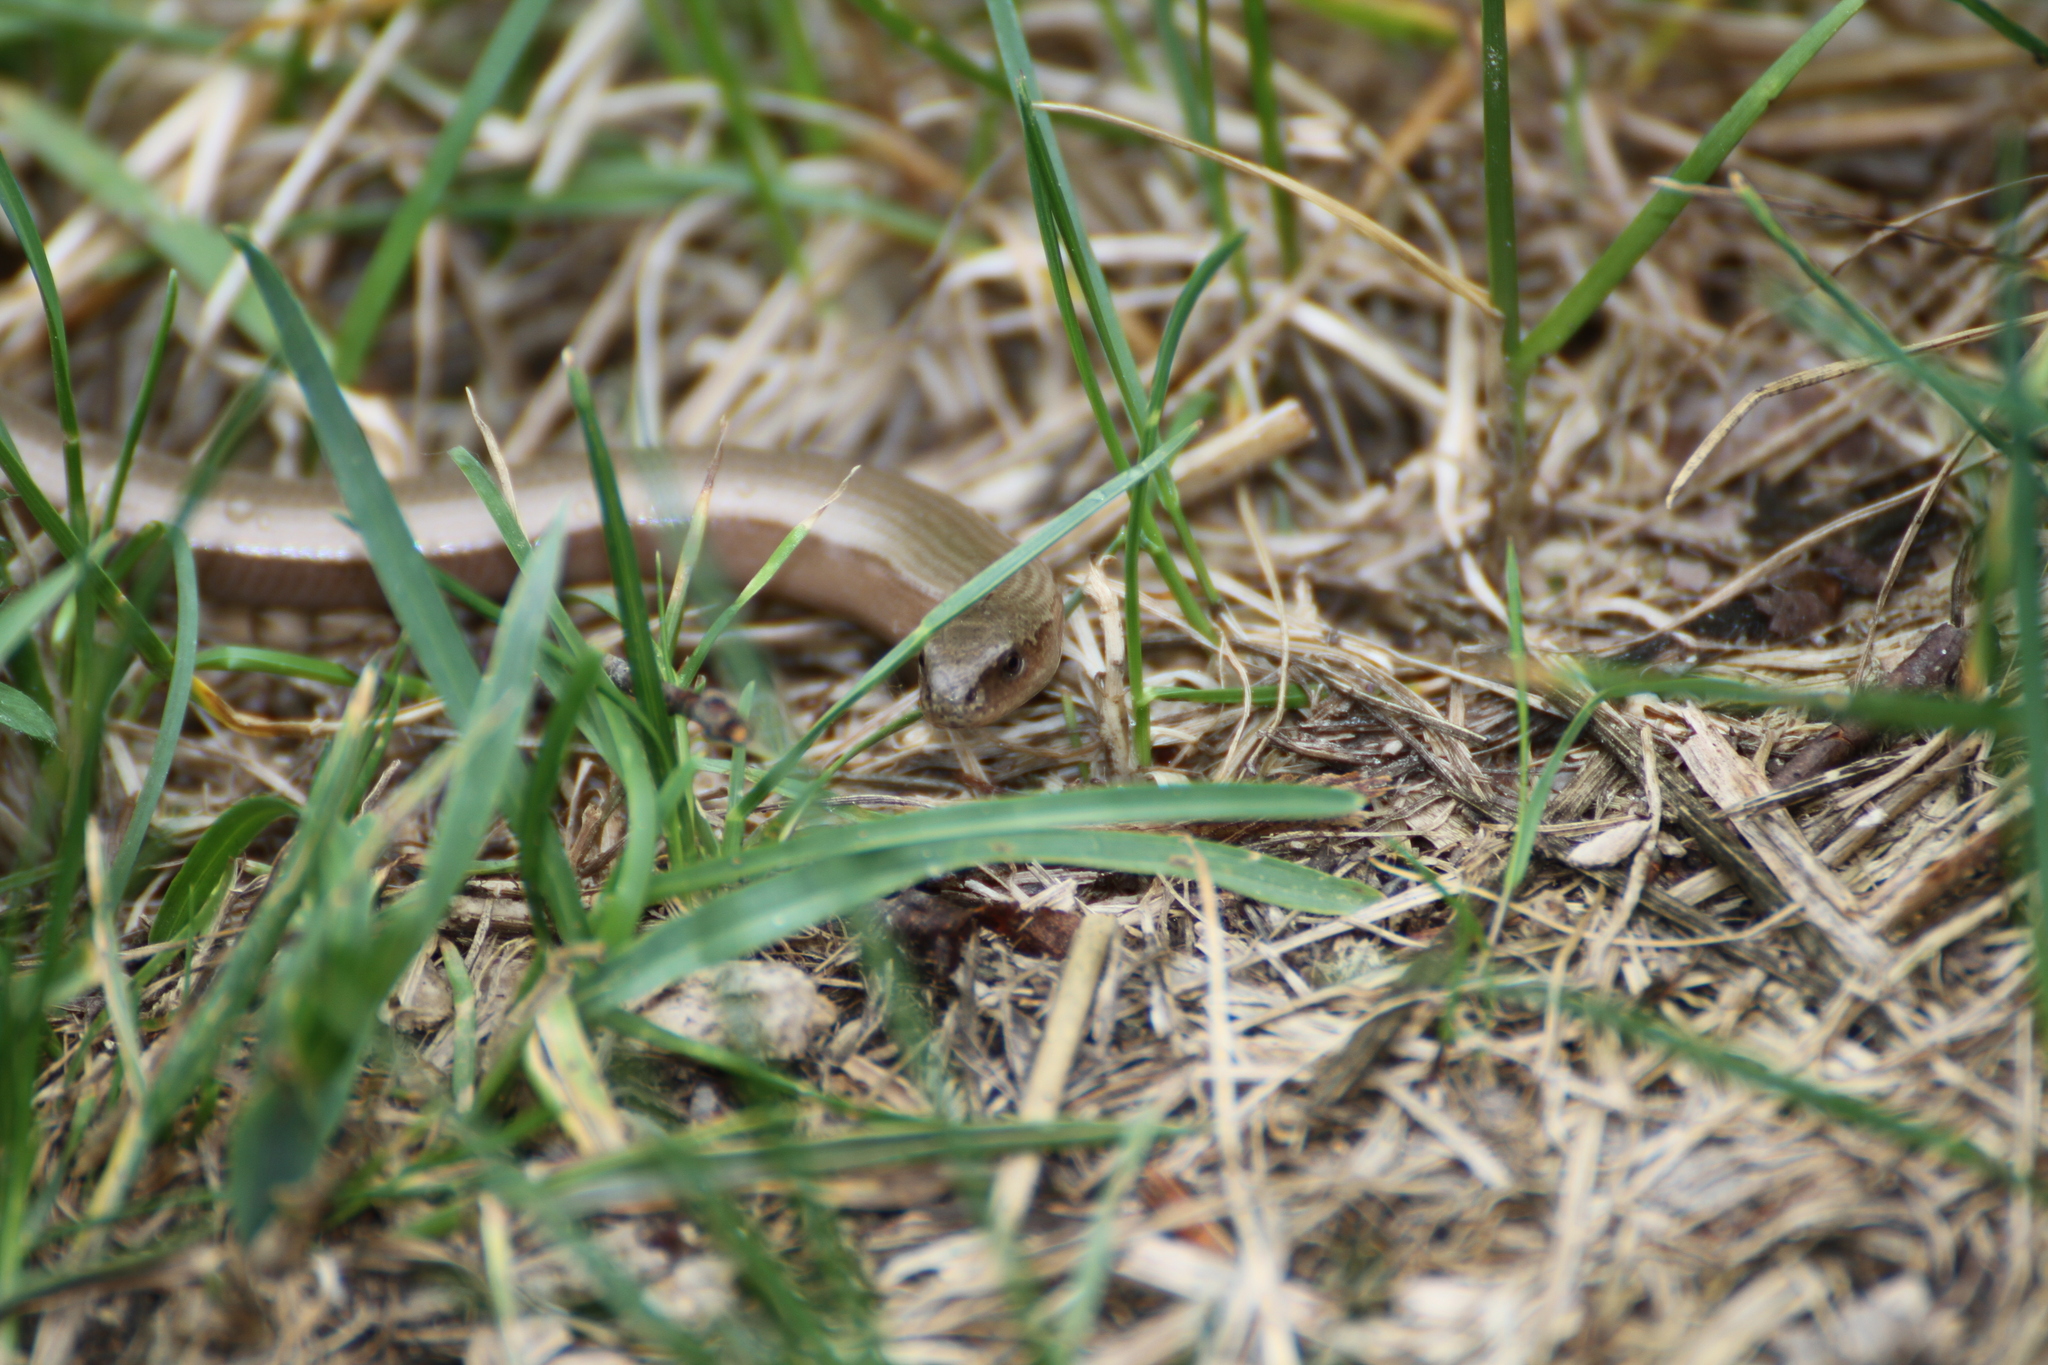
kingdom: Animalia
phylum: Chordata
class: Squamata
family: Anguidae
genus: Anguis
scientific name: Anguis veronensis
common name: Italian slow worm
